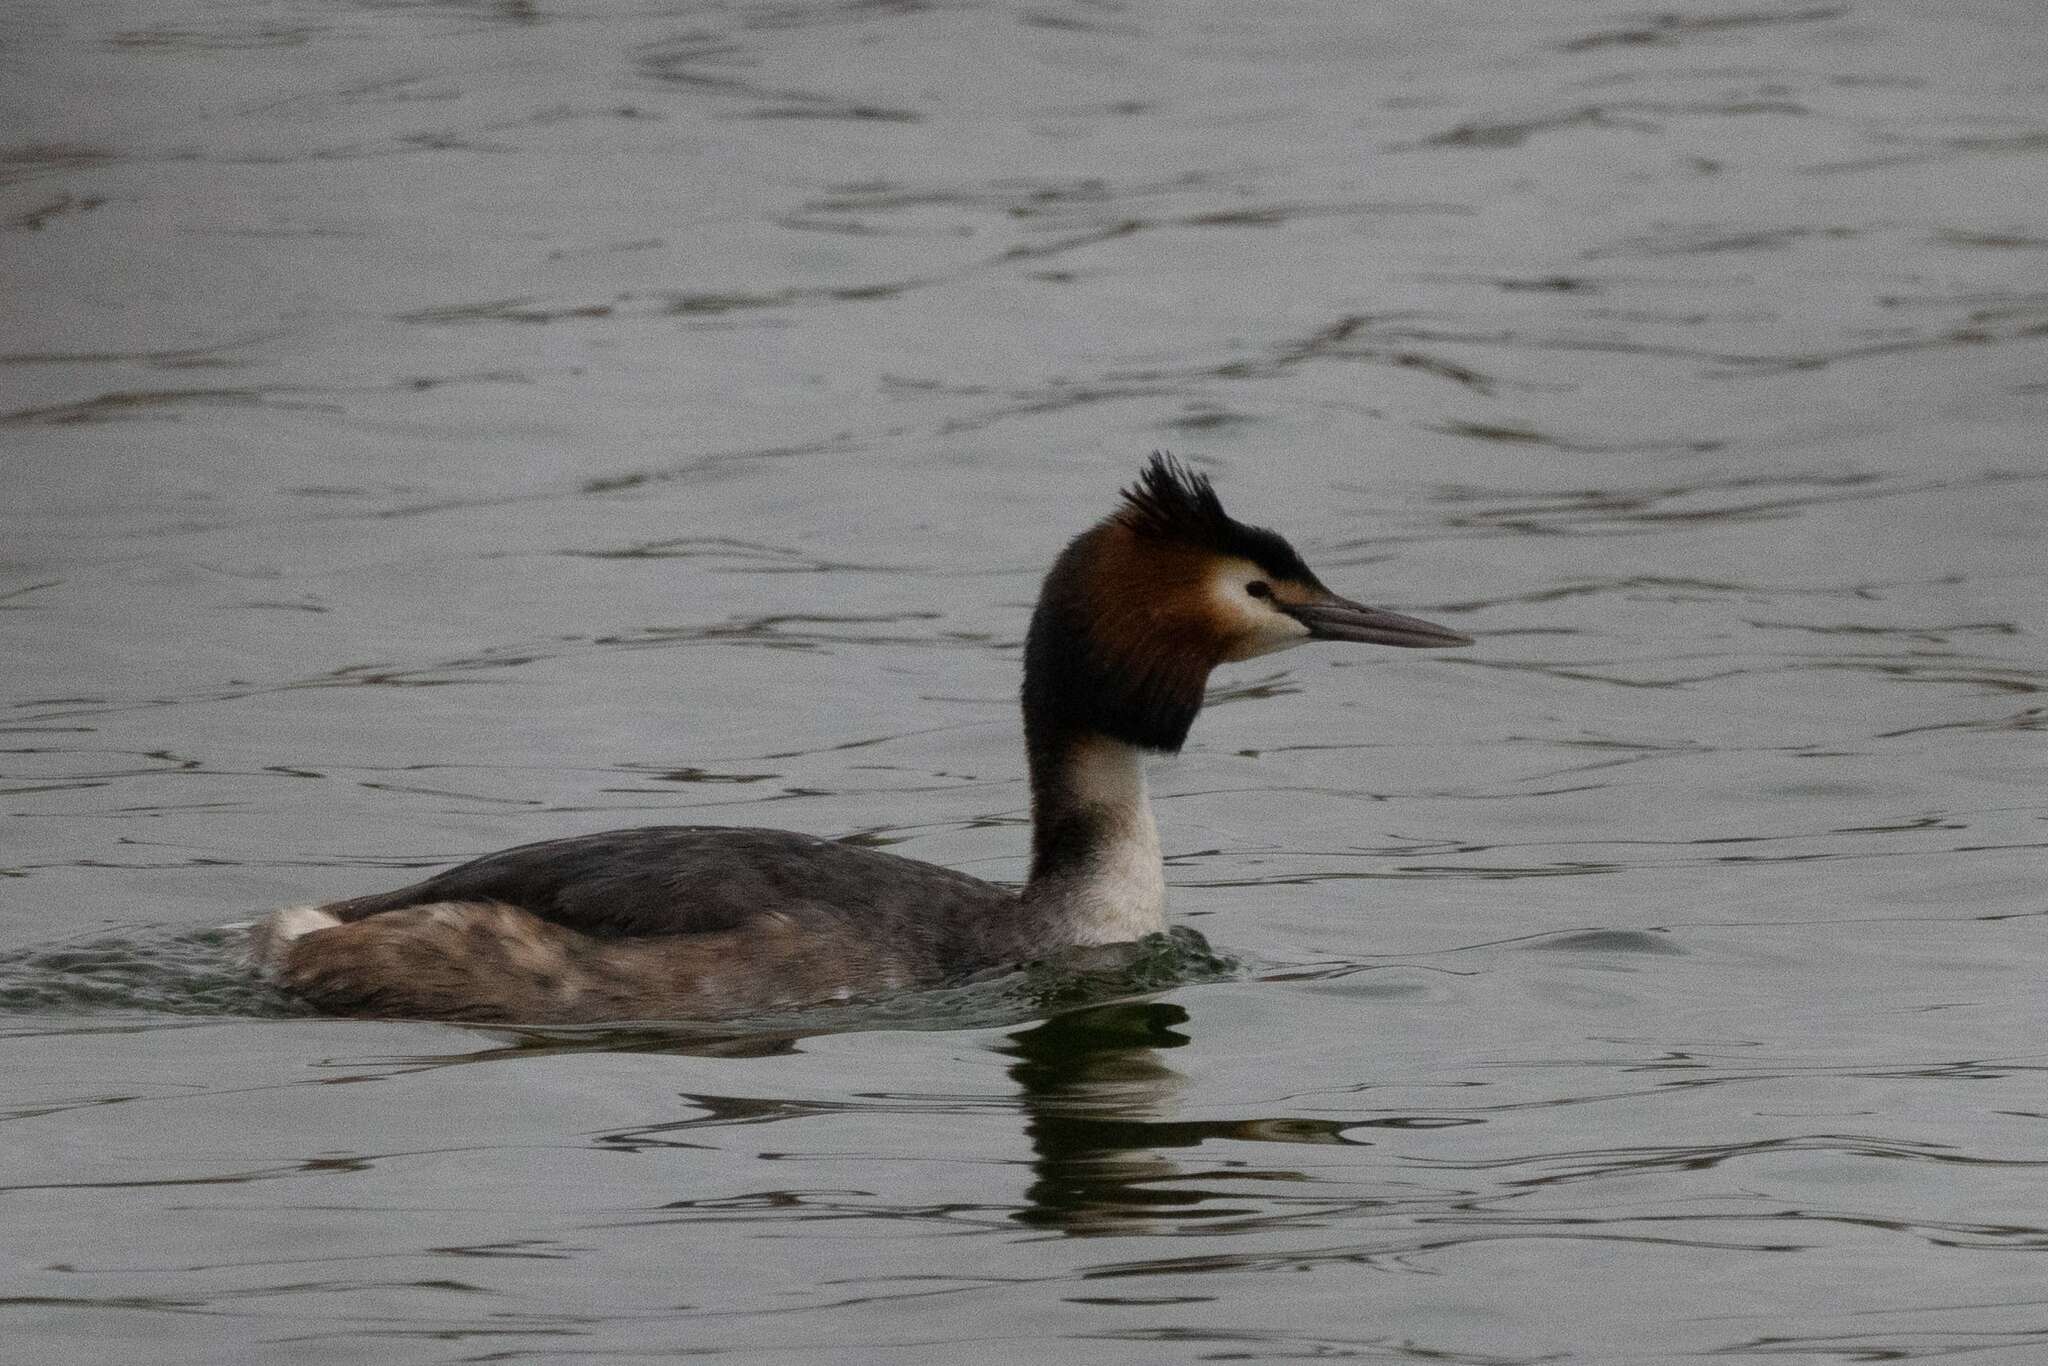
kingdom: Animalia
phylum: Chordata
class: Aves
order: Podicipediformes
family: Podicipedidae
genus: Podiceps
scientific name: Podiceps cristatus
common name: Great crested grebe
